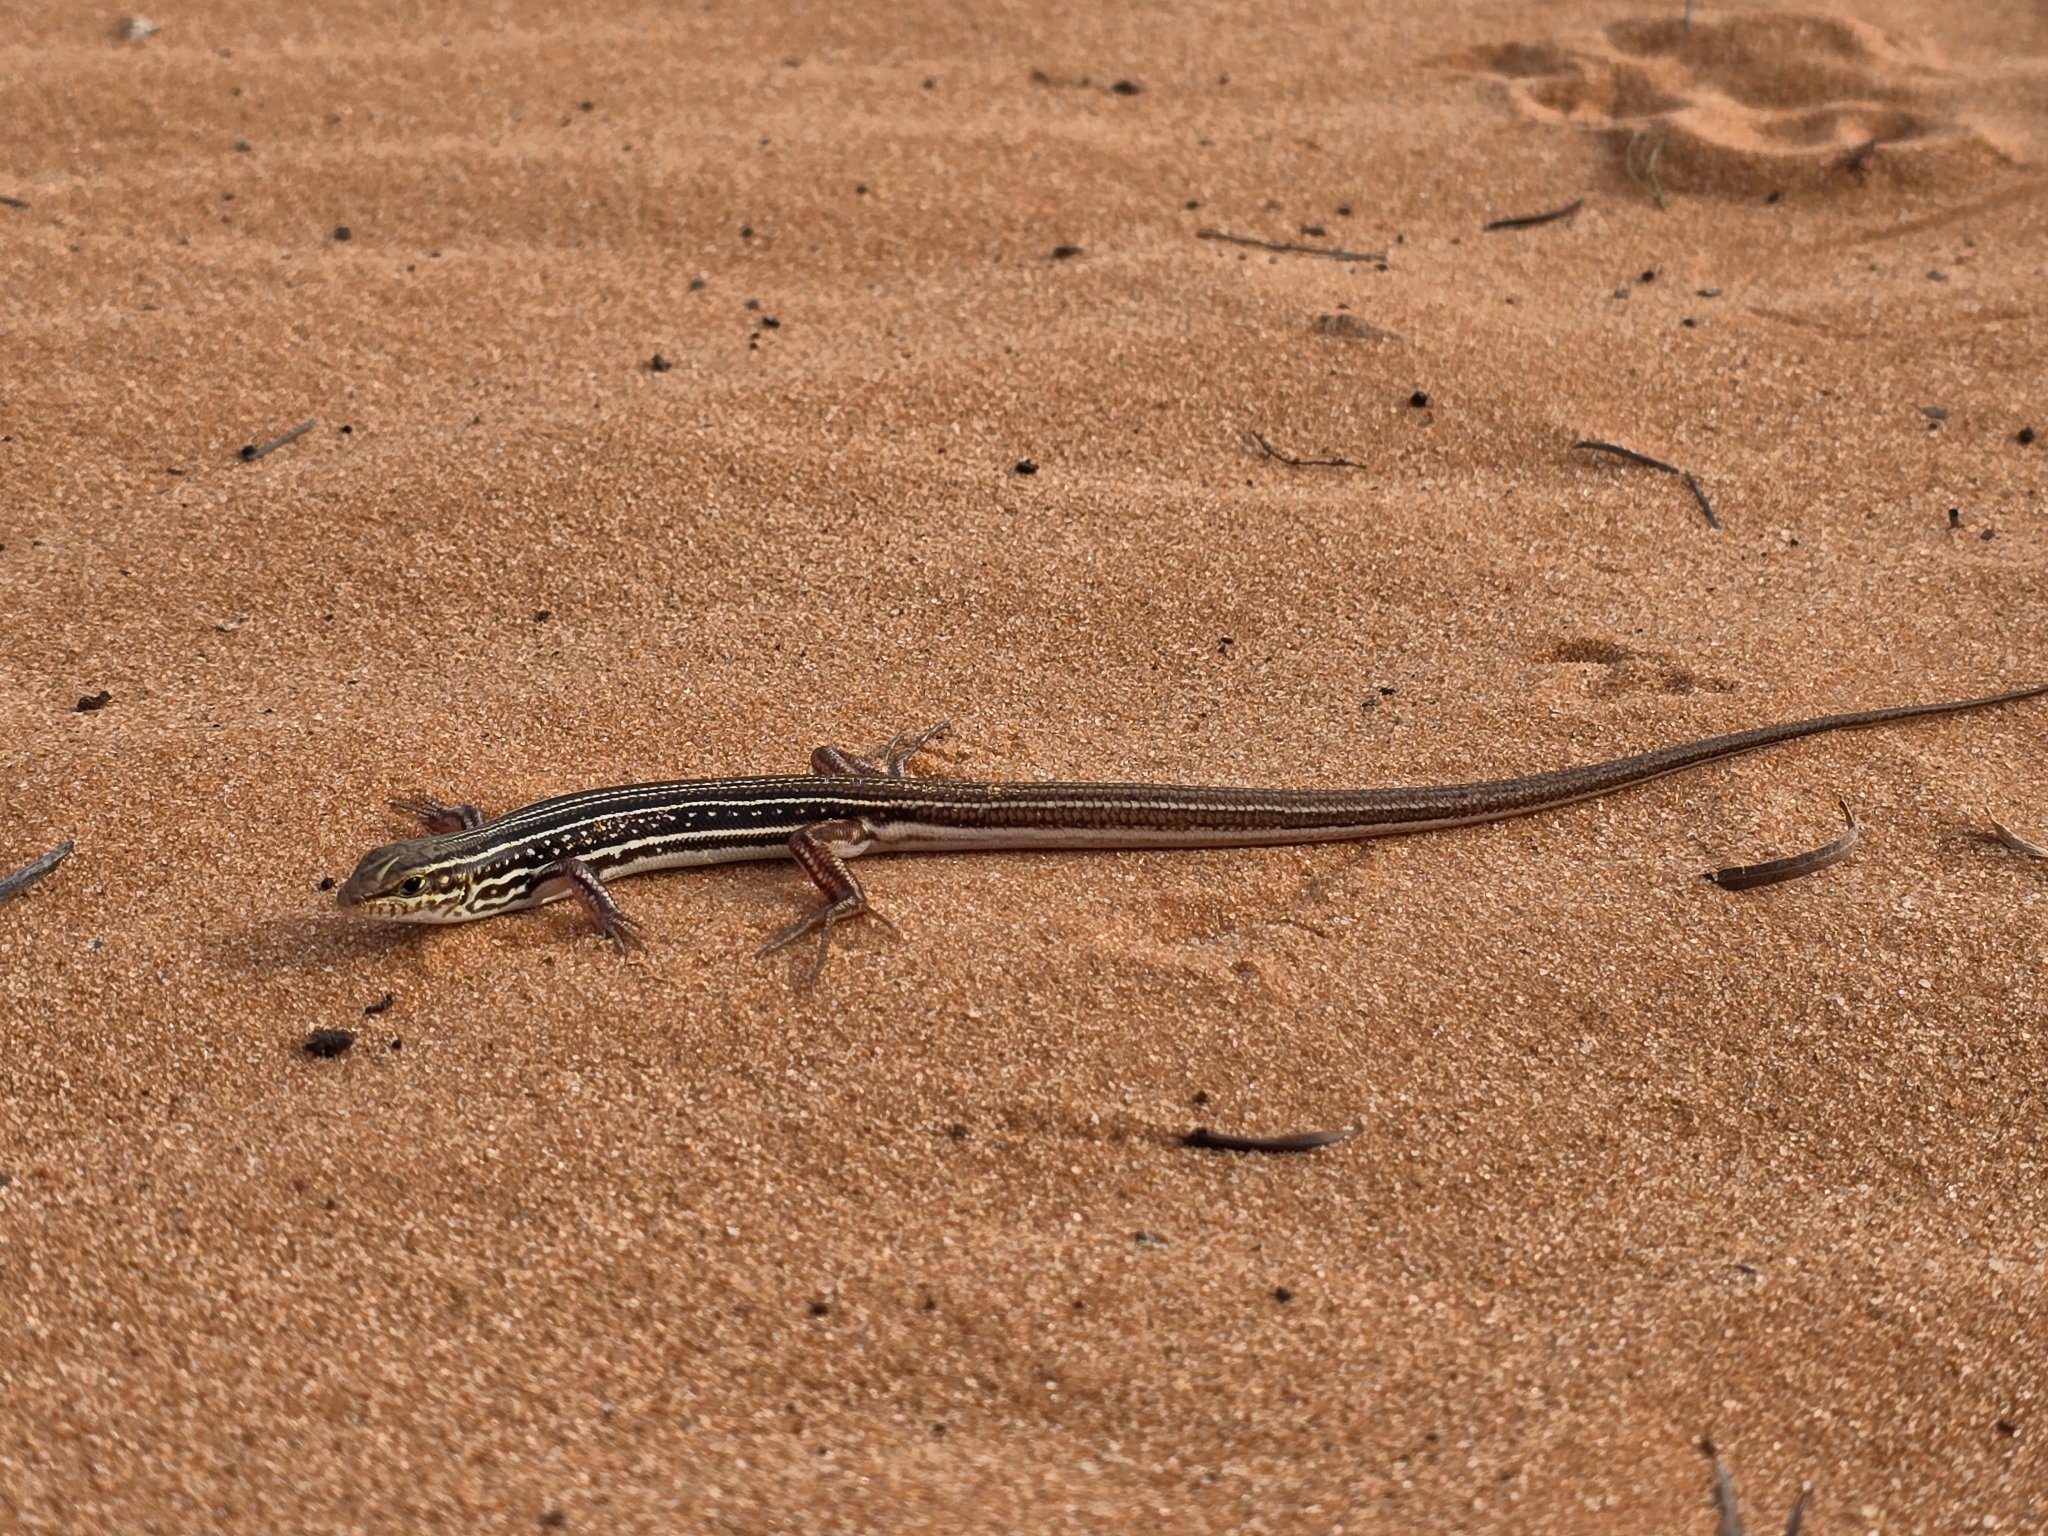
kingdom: Animalia
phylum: Chordata
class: Squamata
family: Scincidae
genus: Ctenotus
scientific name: Ctenotus regius
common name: Pale-rumped ctenotus
